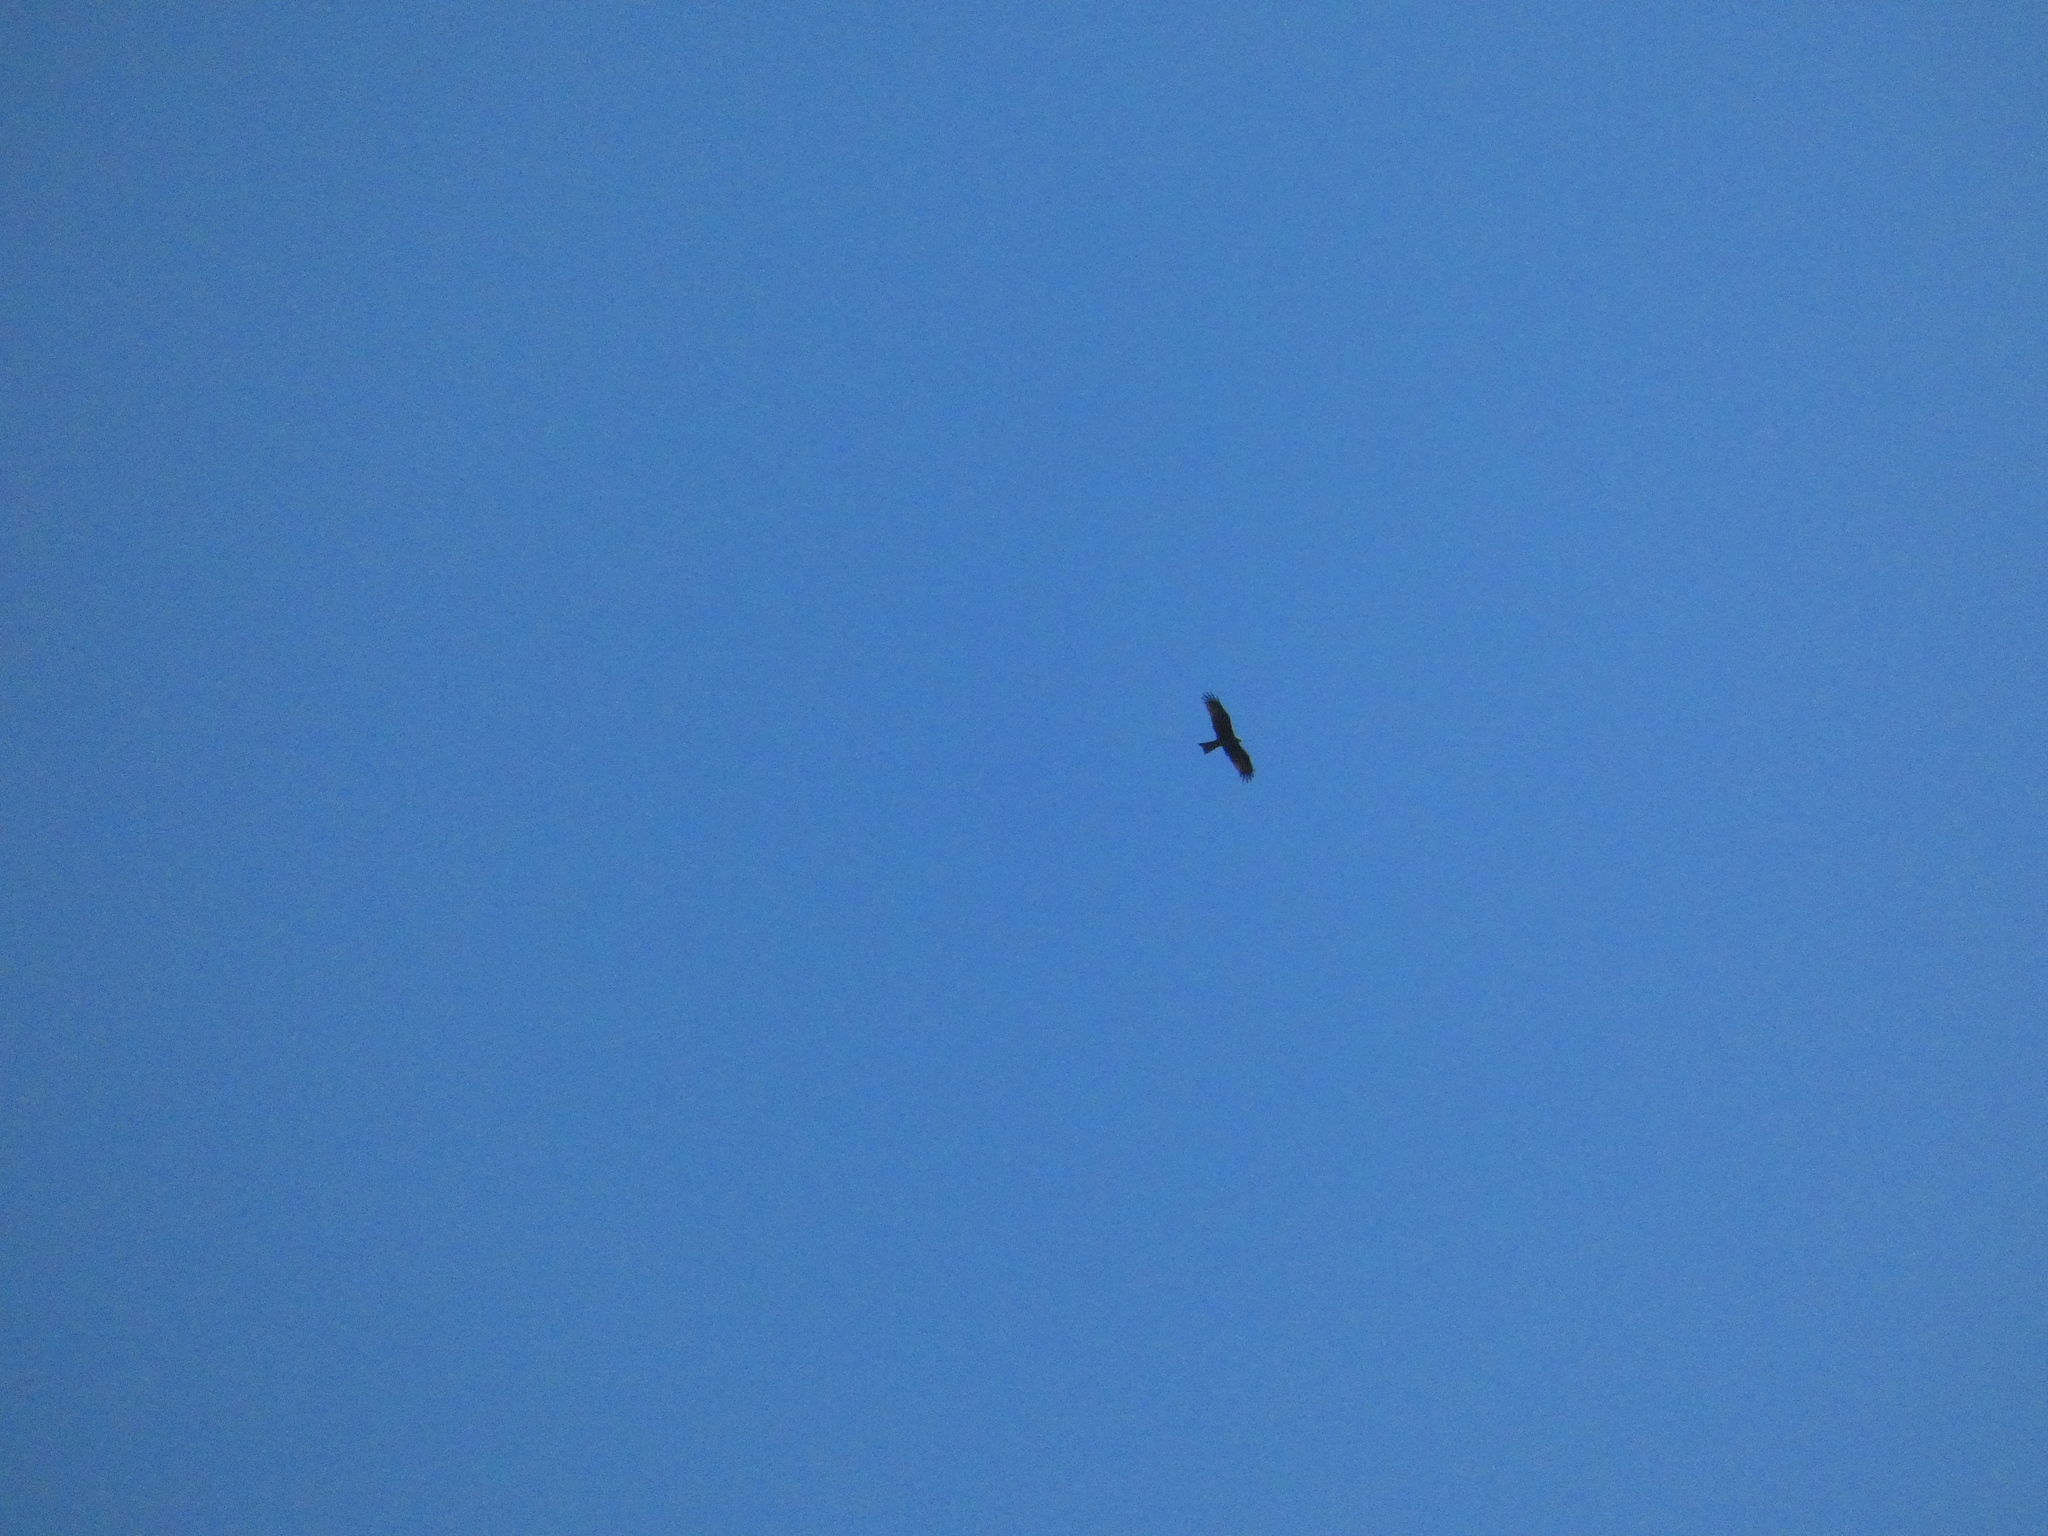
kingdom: Animalia
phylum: Chordata
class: Aves
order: Accipitriformes
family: Accipitridae
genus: Milvus
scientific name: Milvus migrans
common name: Black kite
